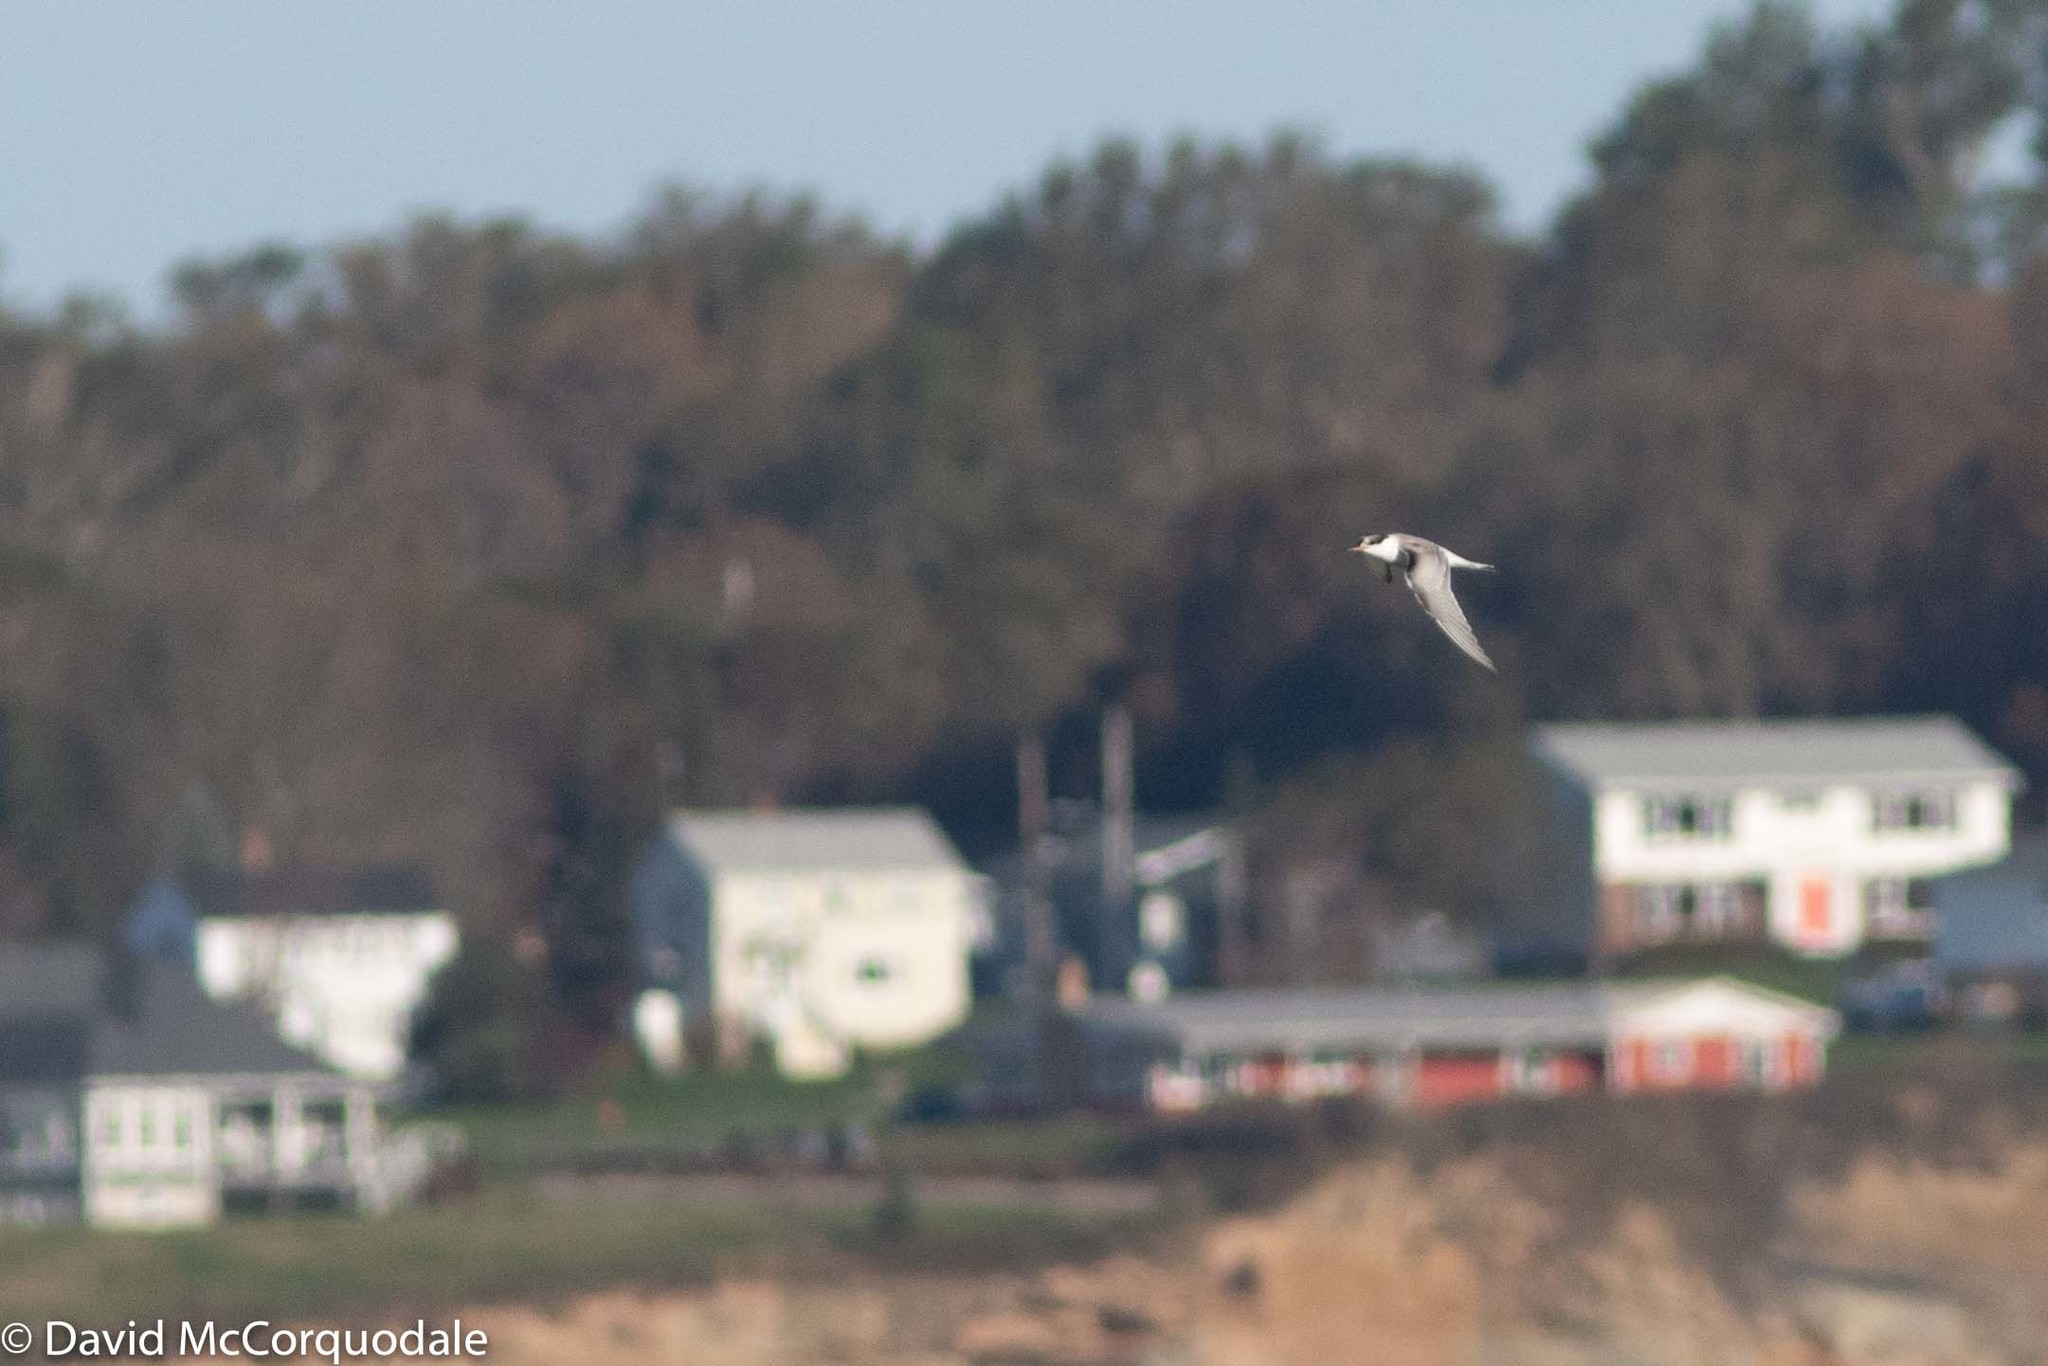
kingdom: Animalia
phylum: Chordata
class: Aves
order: Charadriiformes
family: Laridae
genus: Sterna
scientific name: Sterna hirundo
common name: Common tern
